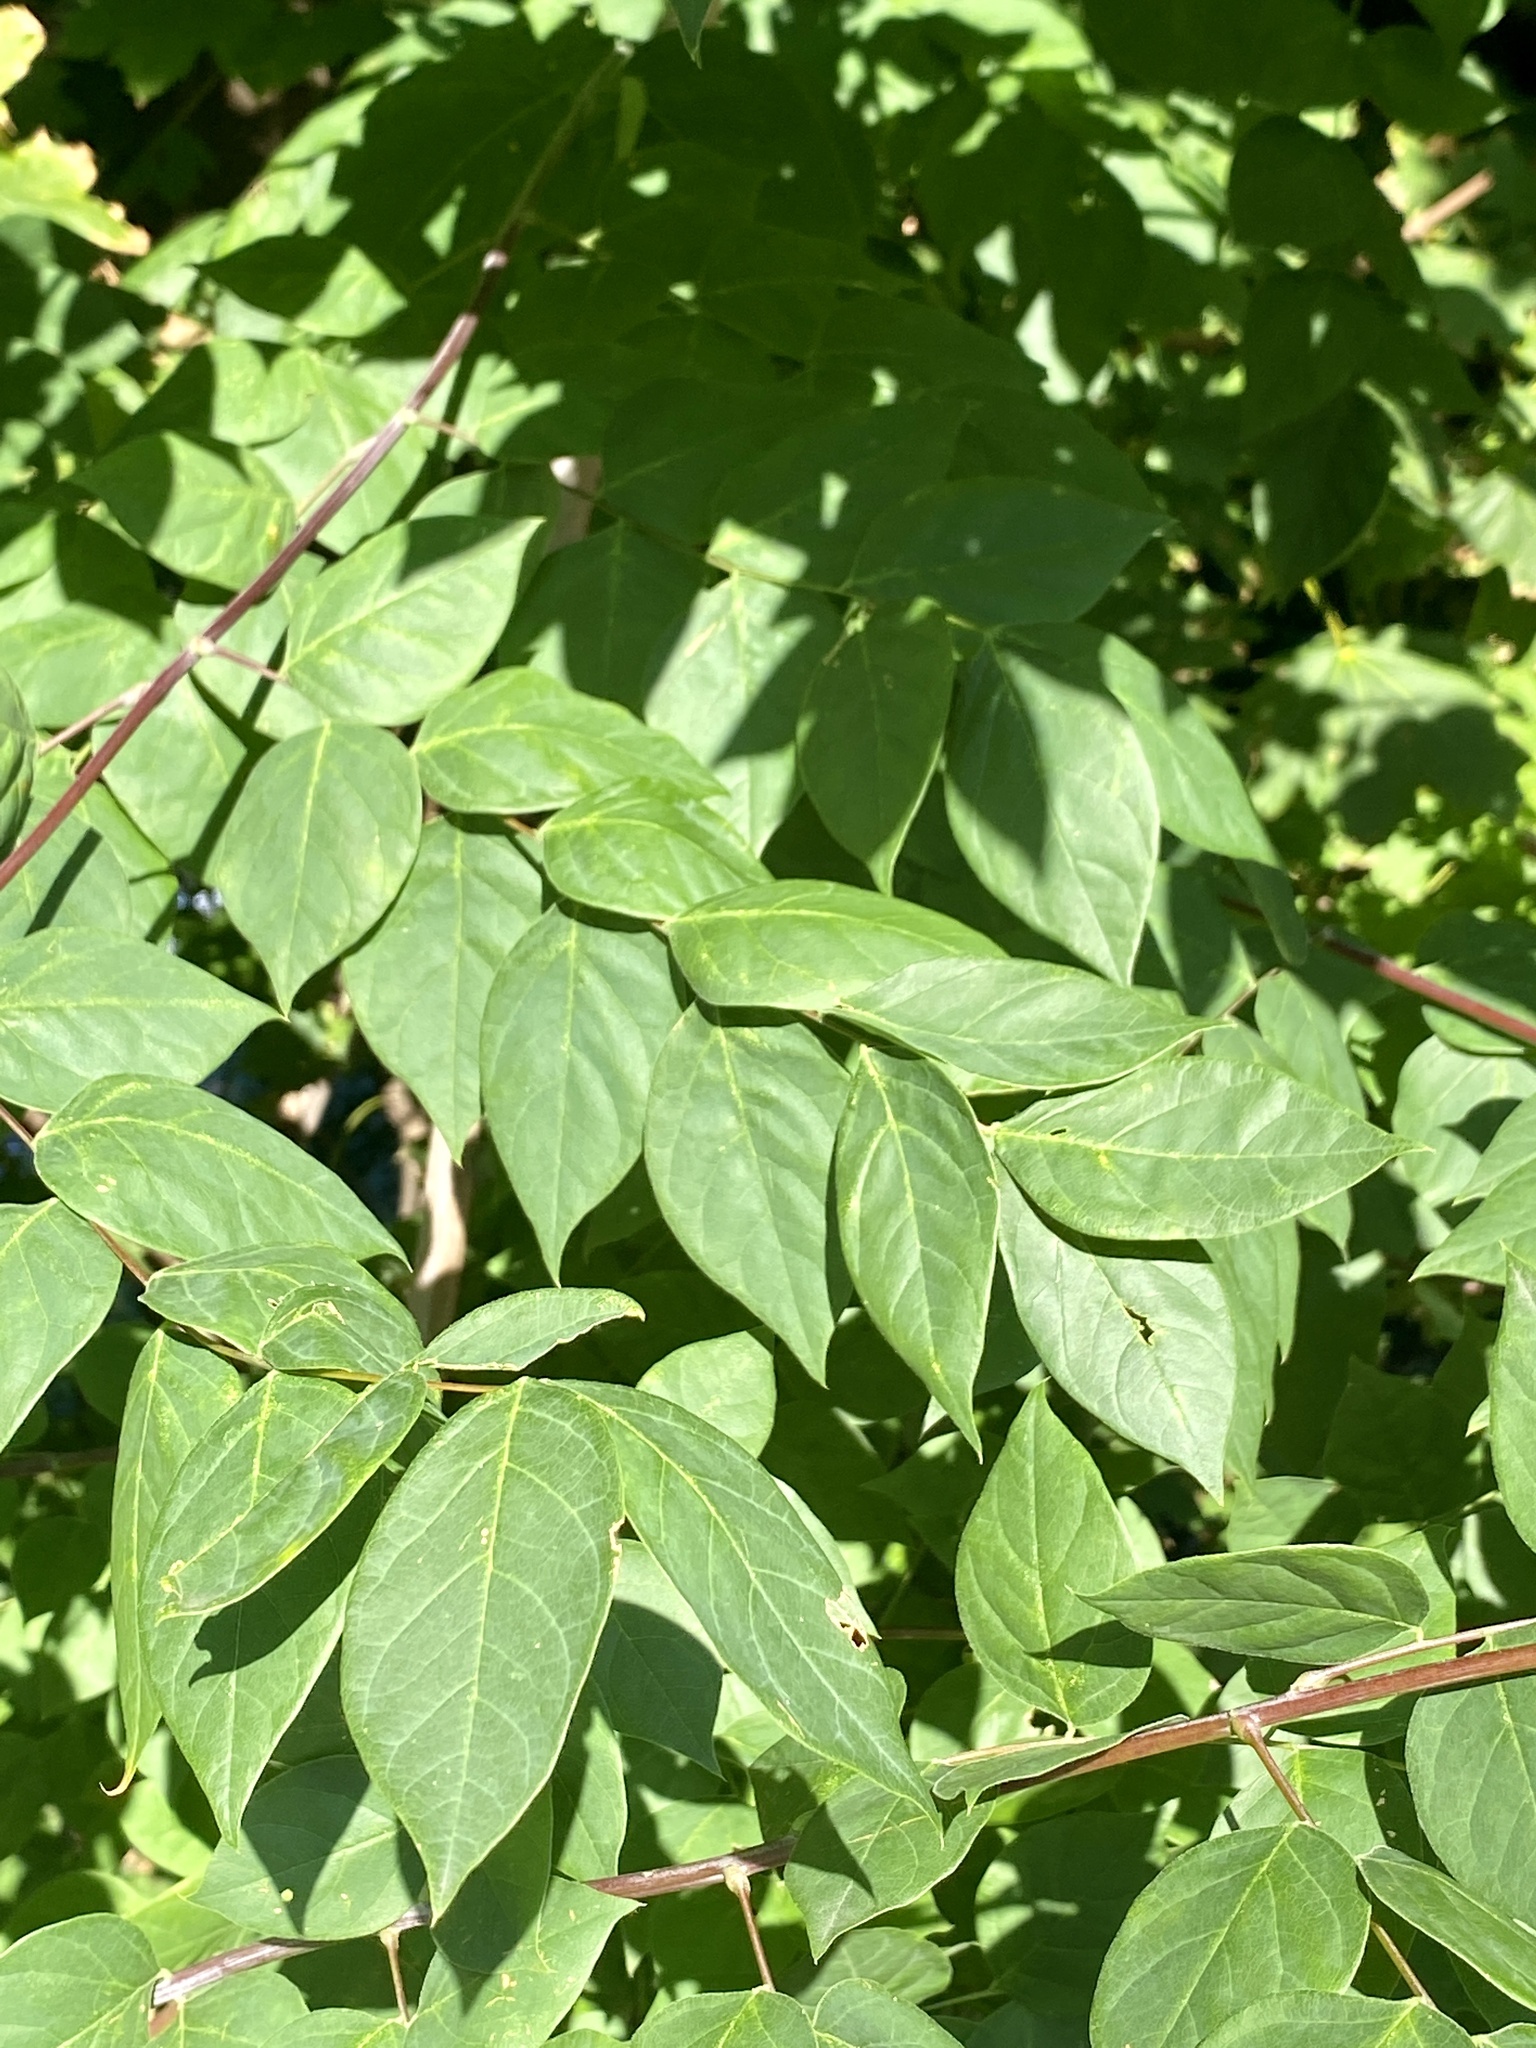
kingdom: Plantae
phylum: Tracheophyta
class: Magnoliopsida
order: Fabales
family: Fabaceae
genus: Gymnocladus
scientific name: Gymnocladus dioicus
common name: Kentucky coffee-tree
